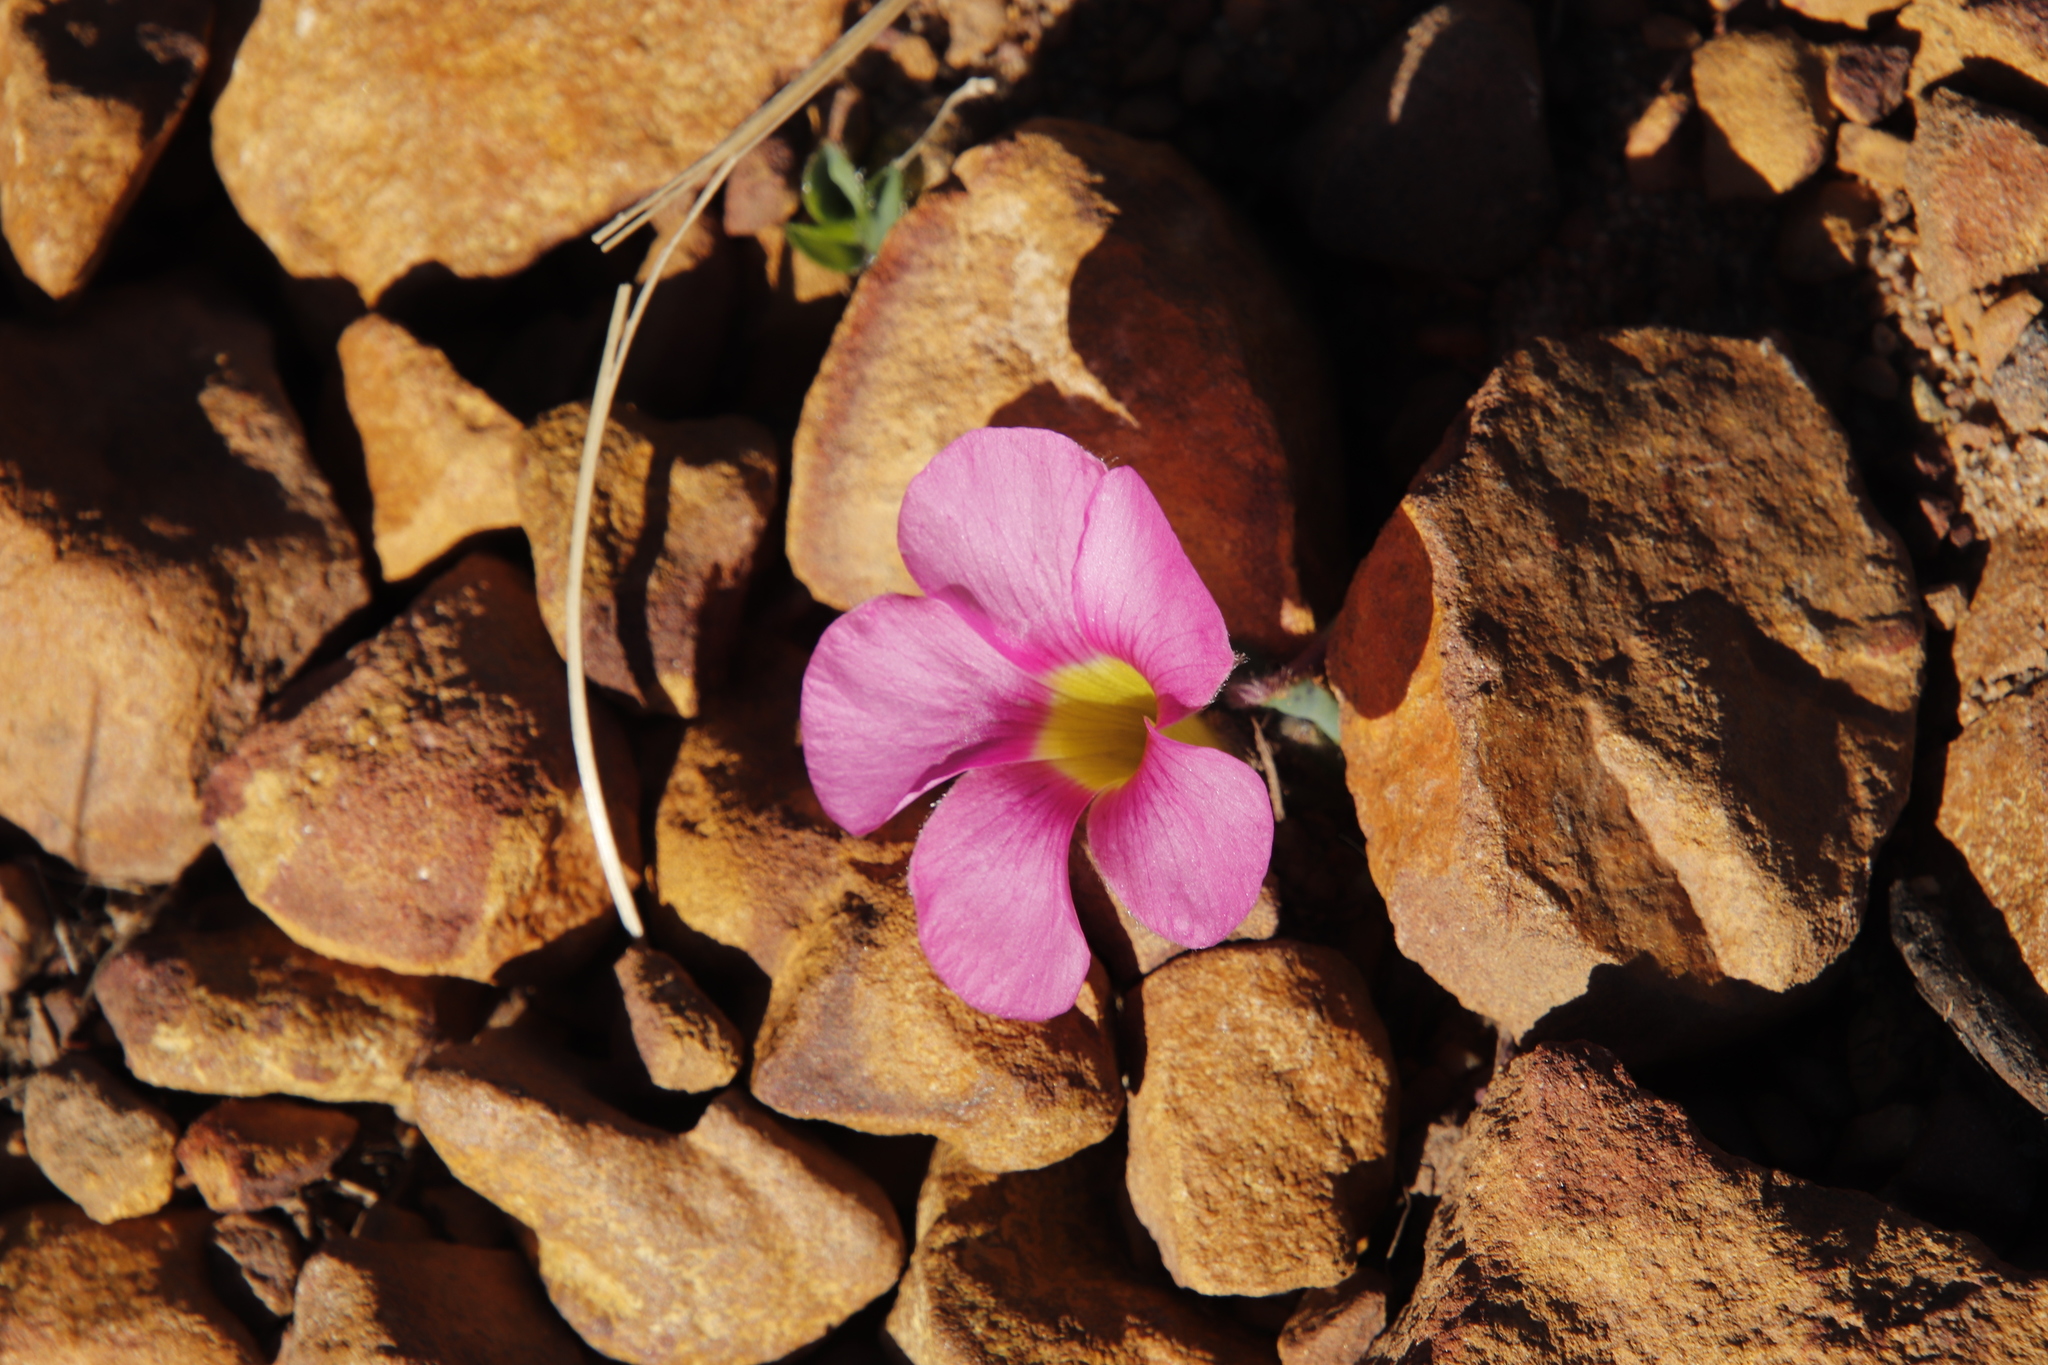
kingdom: Plantae
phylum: Tracheophyta
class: Magnoliopsida
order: Oxalidales
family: Oxalidaceae
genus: Oxalis
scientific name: Oxalis purpurea
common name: Purple woodsorrel
